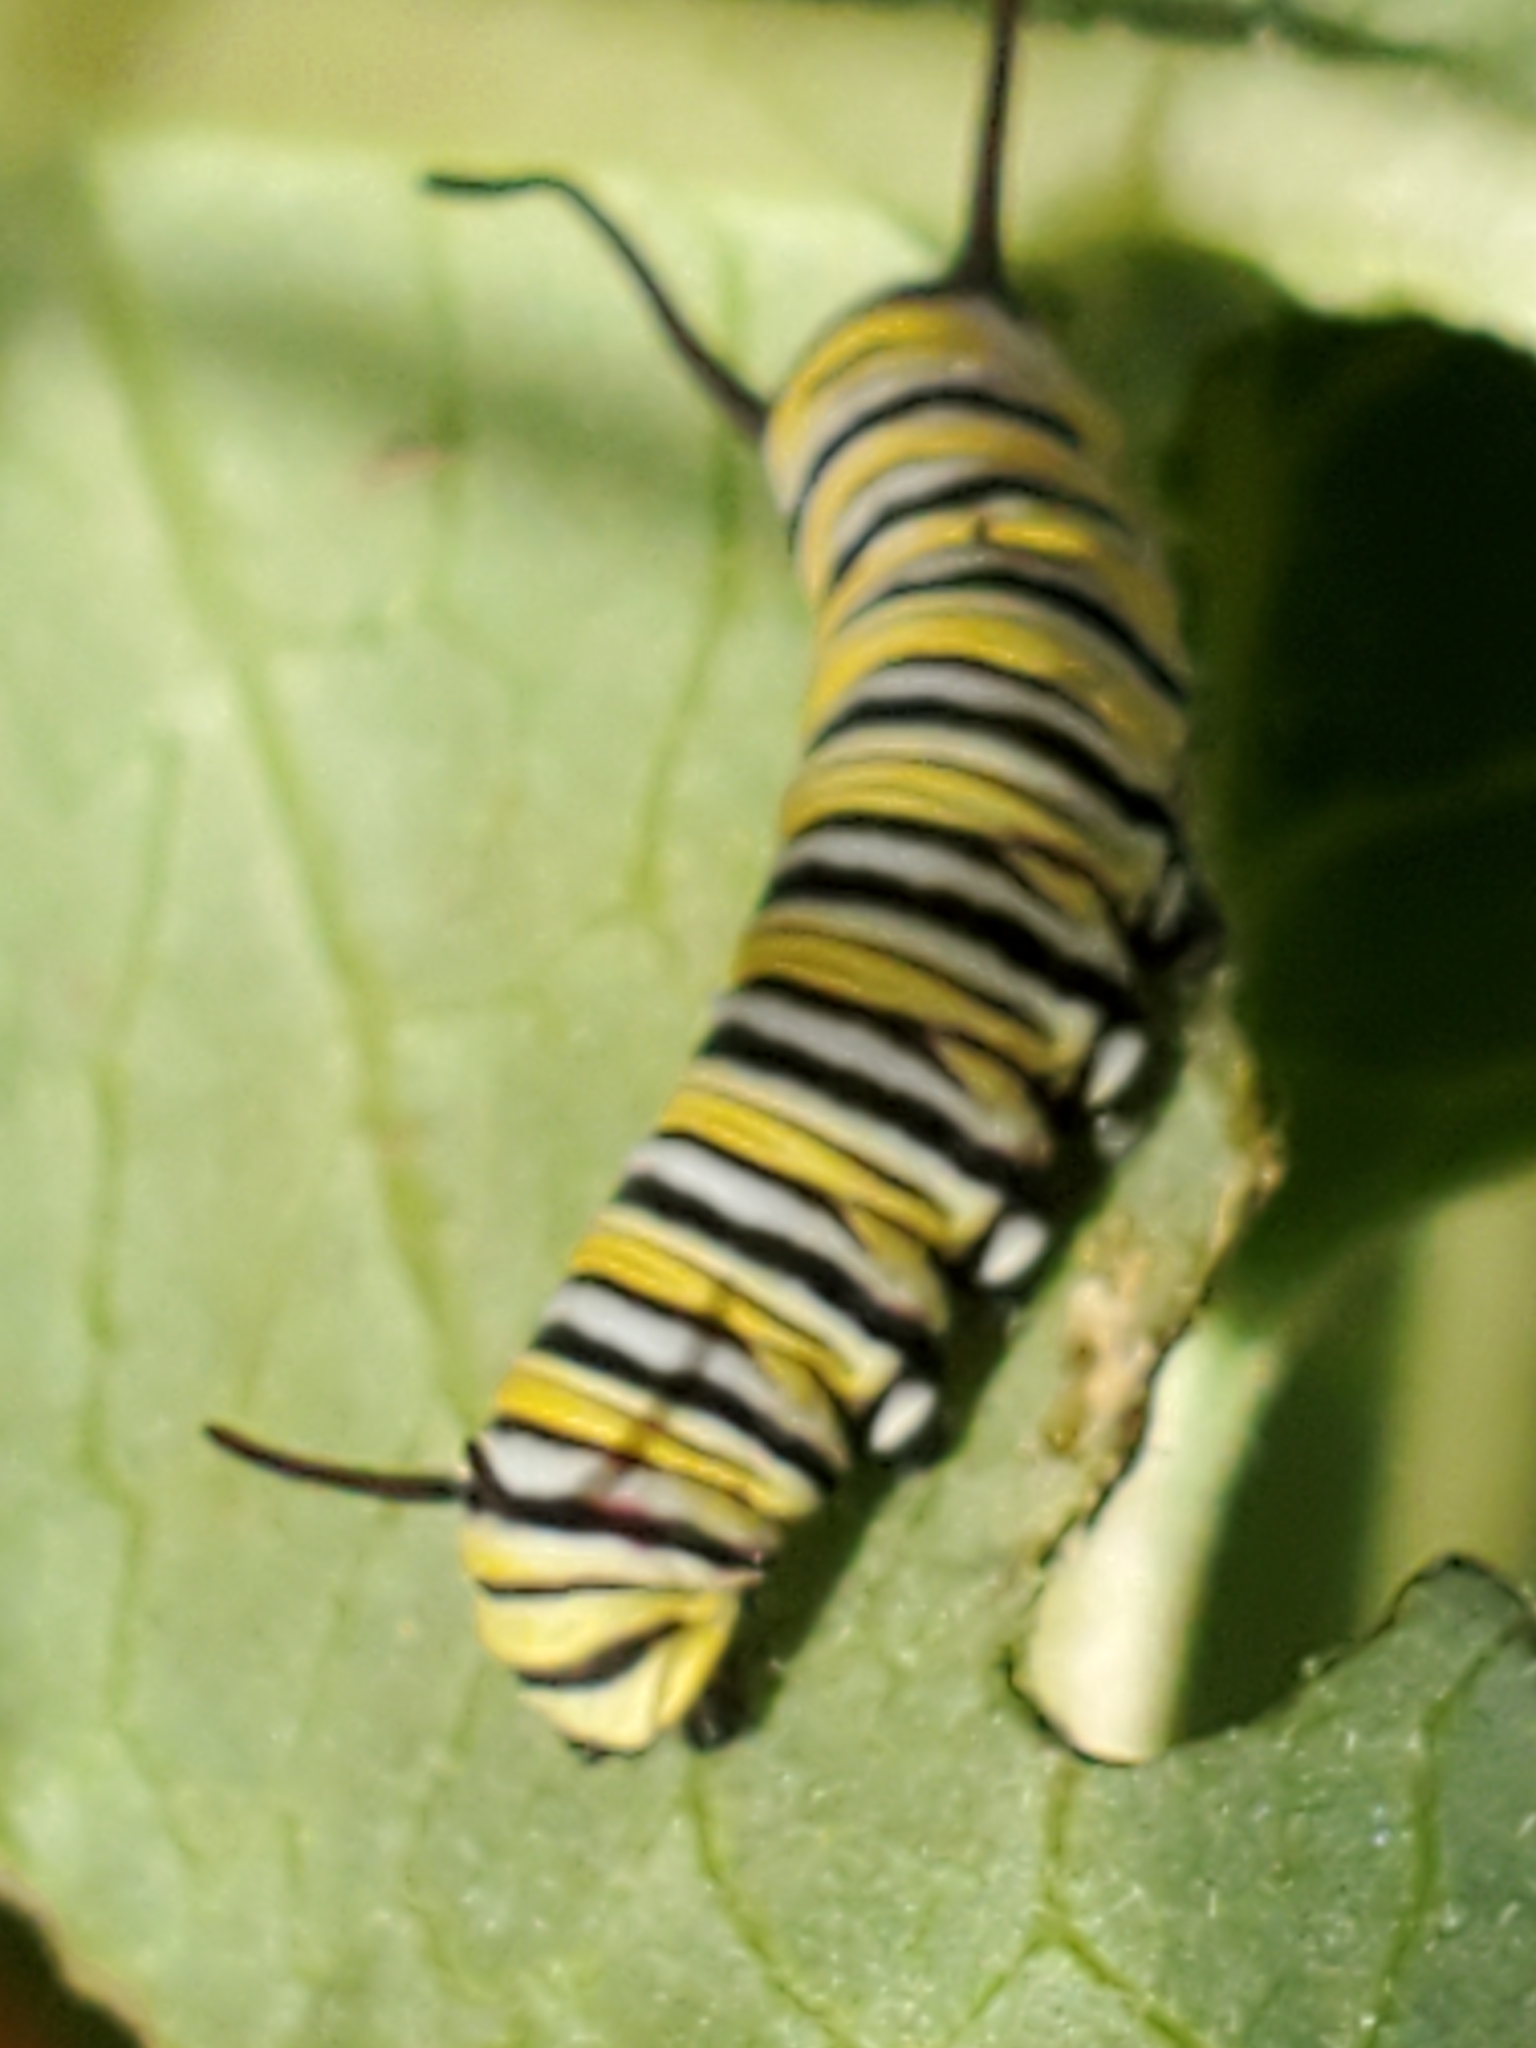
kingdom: Animalia
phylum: Arthropoda
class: Insecta
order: Lepidoptera
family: Nymphalidae
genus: Danaus
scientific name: Danaus plexippus
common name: Monarch
